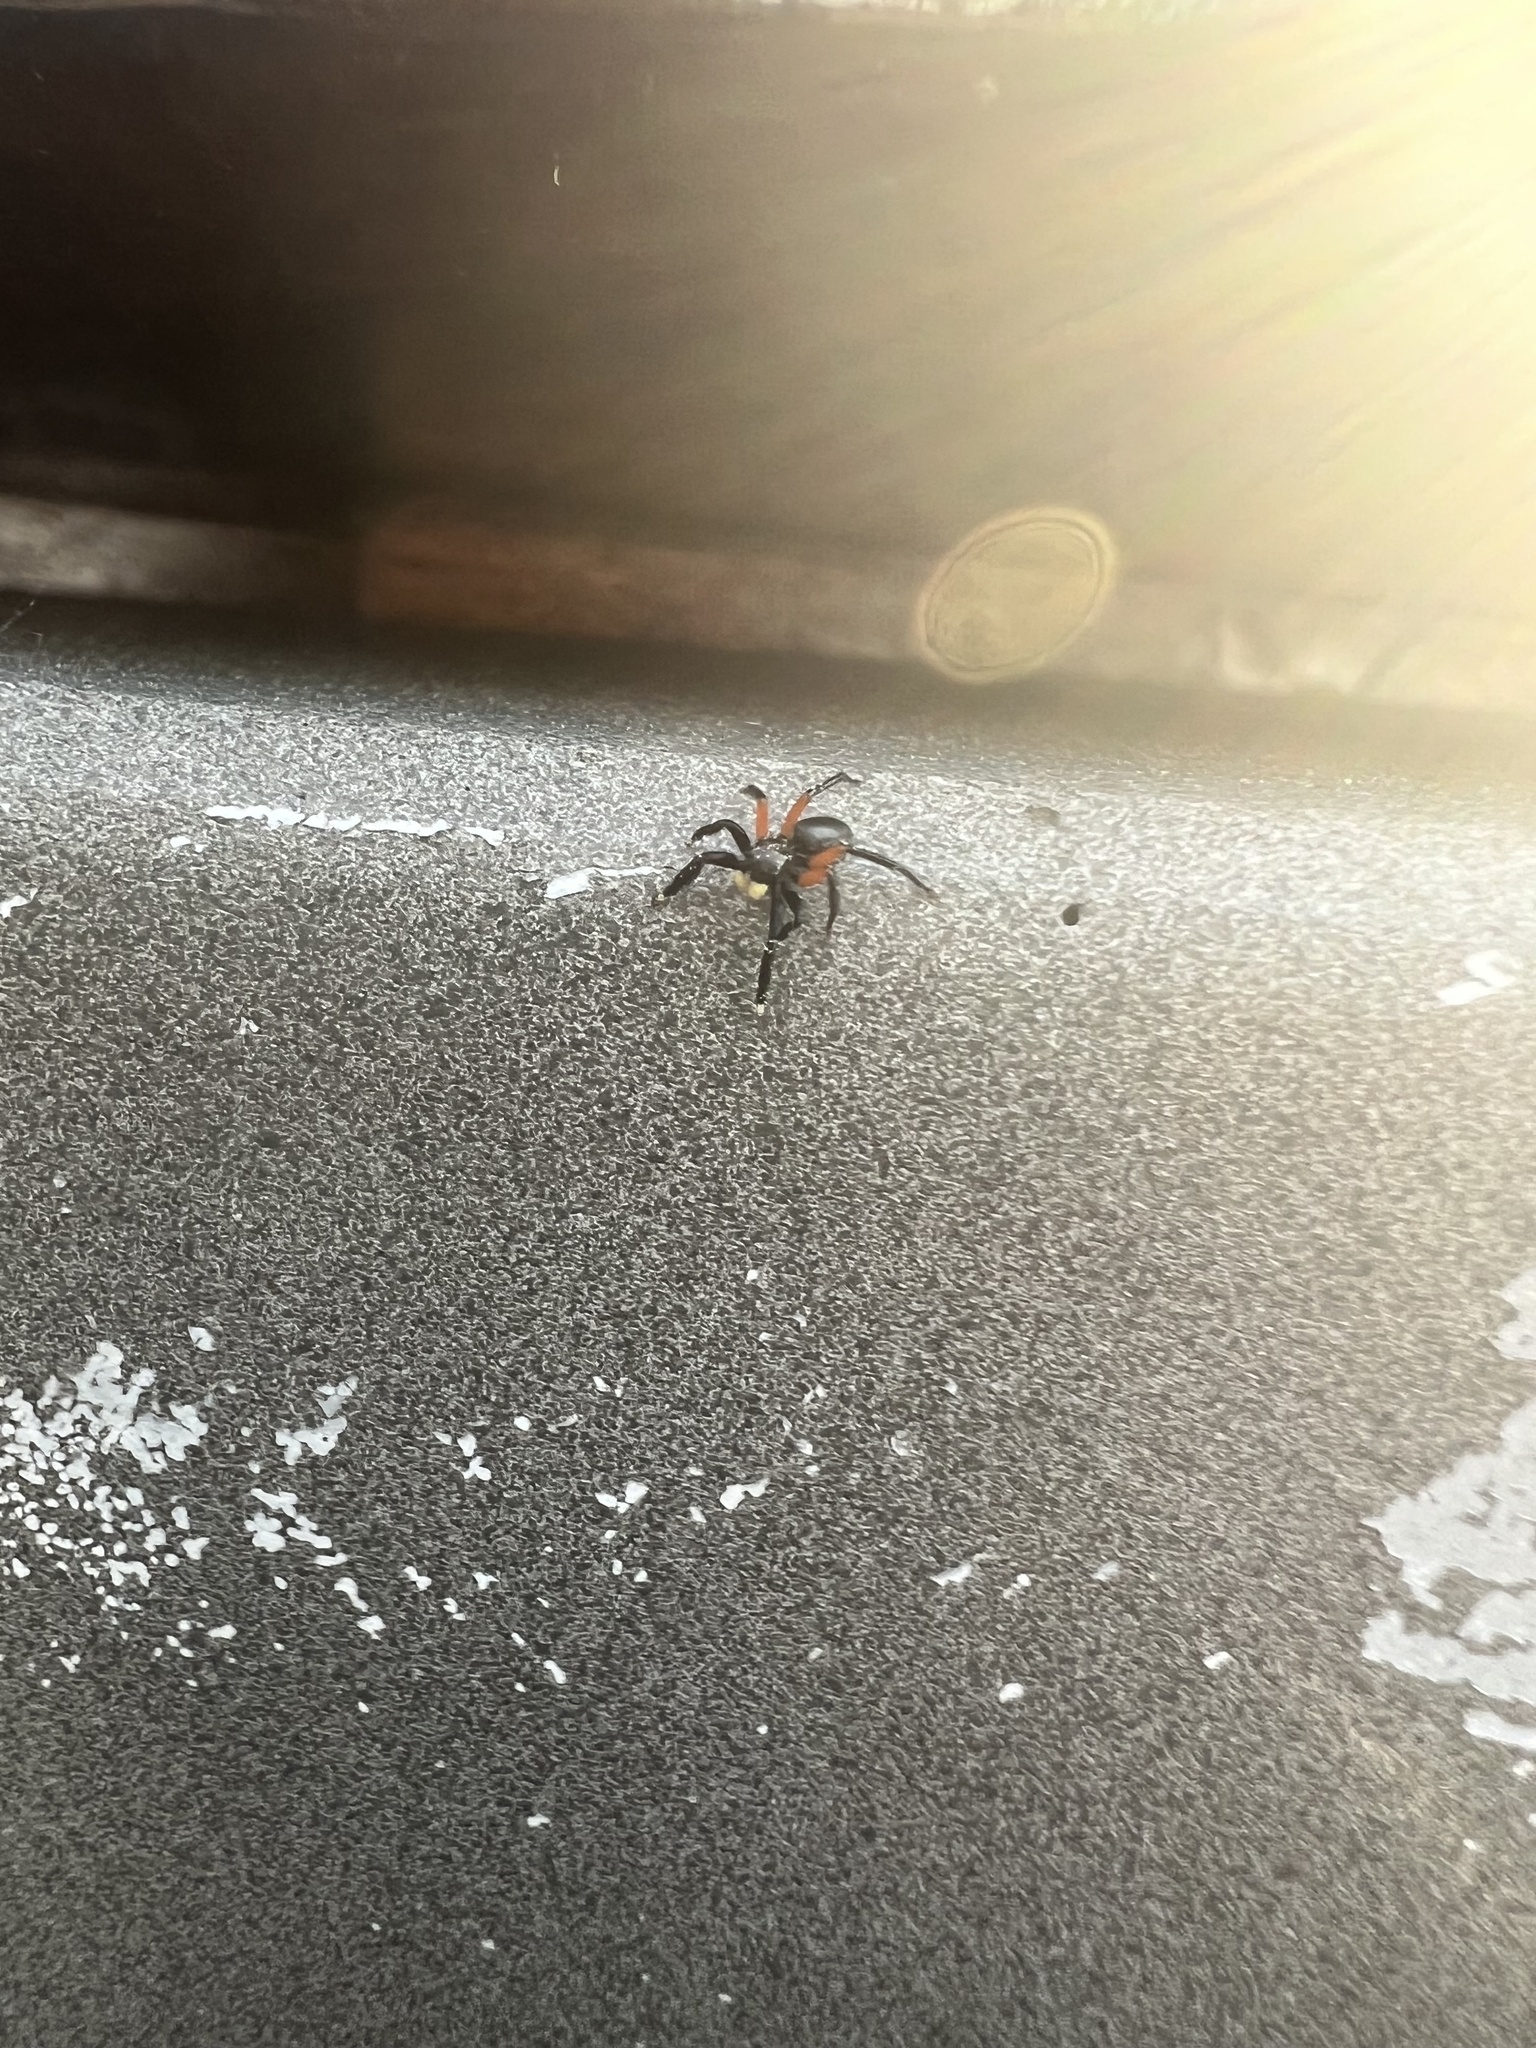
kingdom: Animalia
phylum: Arthropoda
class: Arachnida
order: Araneae
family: Salticidae
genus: Euophrys
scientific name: Euophrys monadnock
